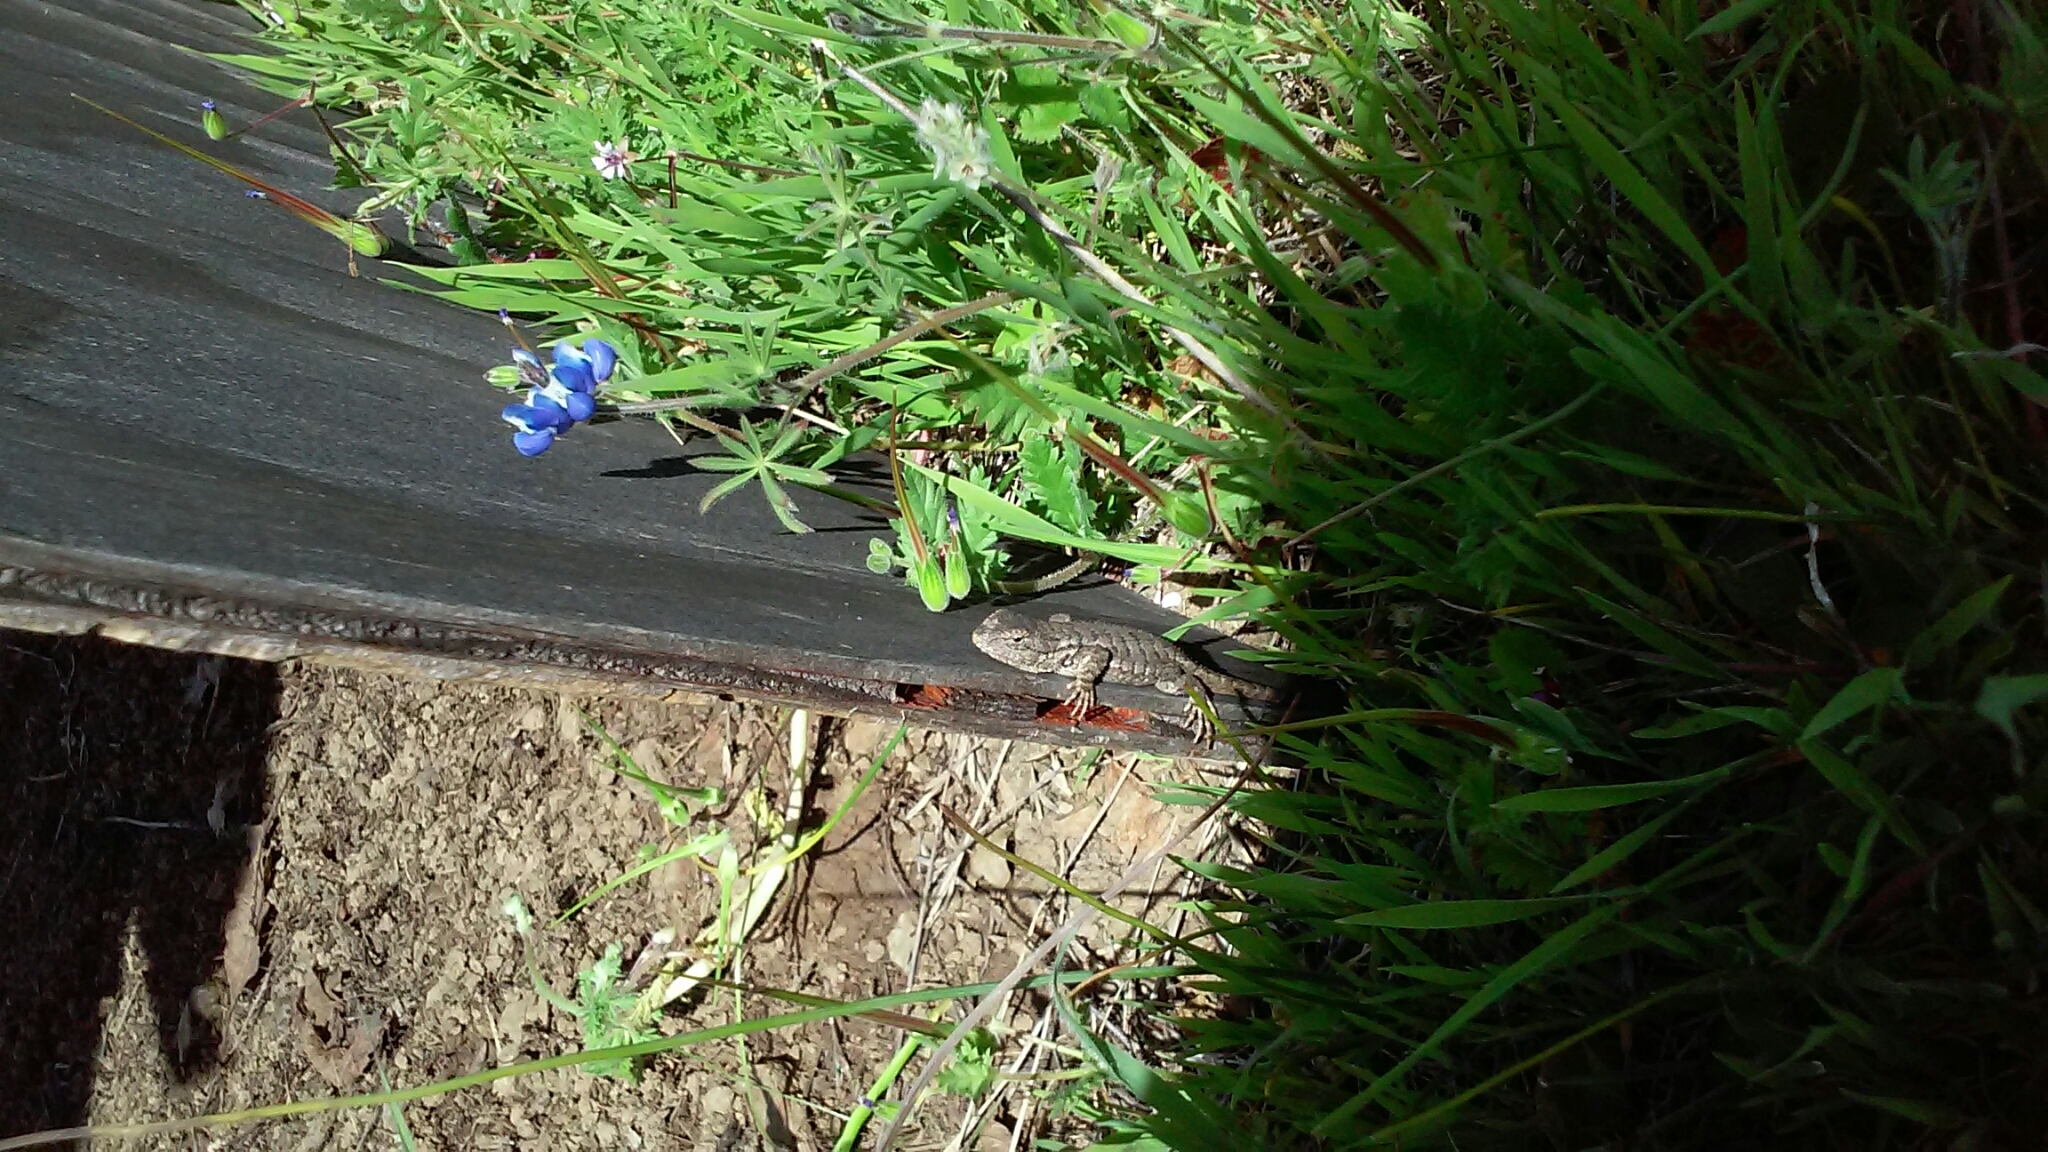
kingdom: Animalia
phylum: Chordata
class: Squamata
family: Phrynosomatidae
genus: Sceloporus
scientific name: Sceloporus occidentalis
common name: Western fence lizard
